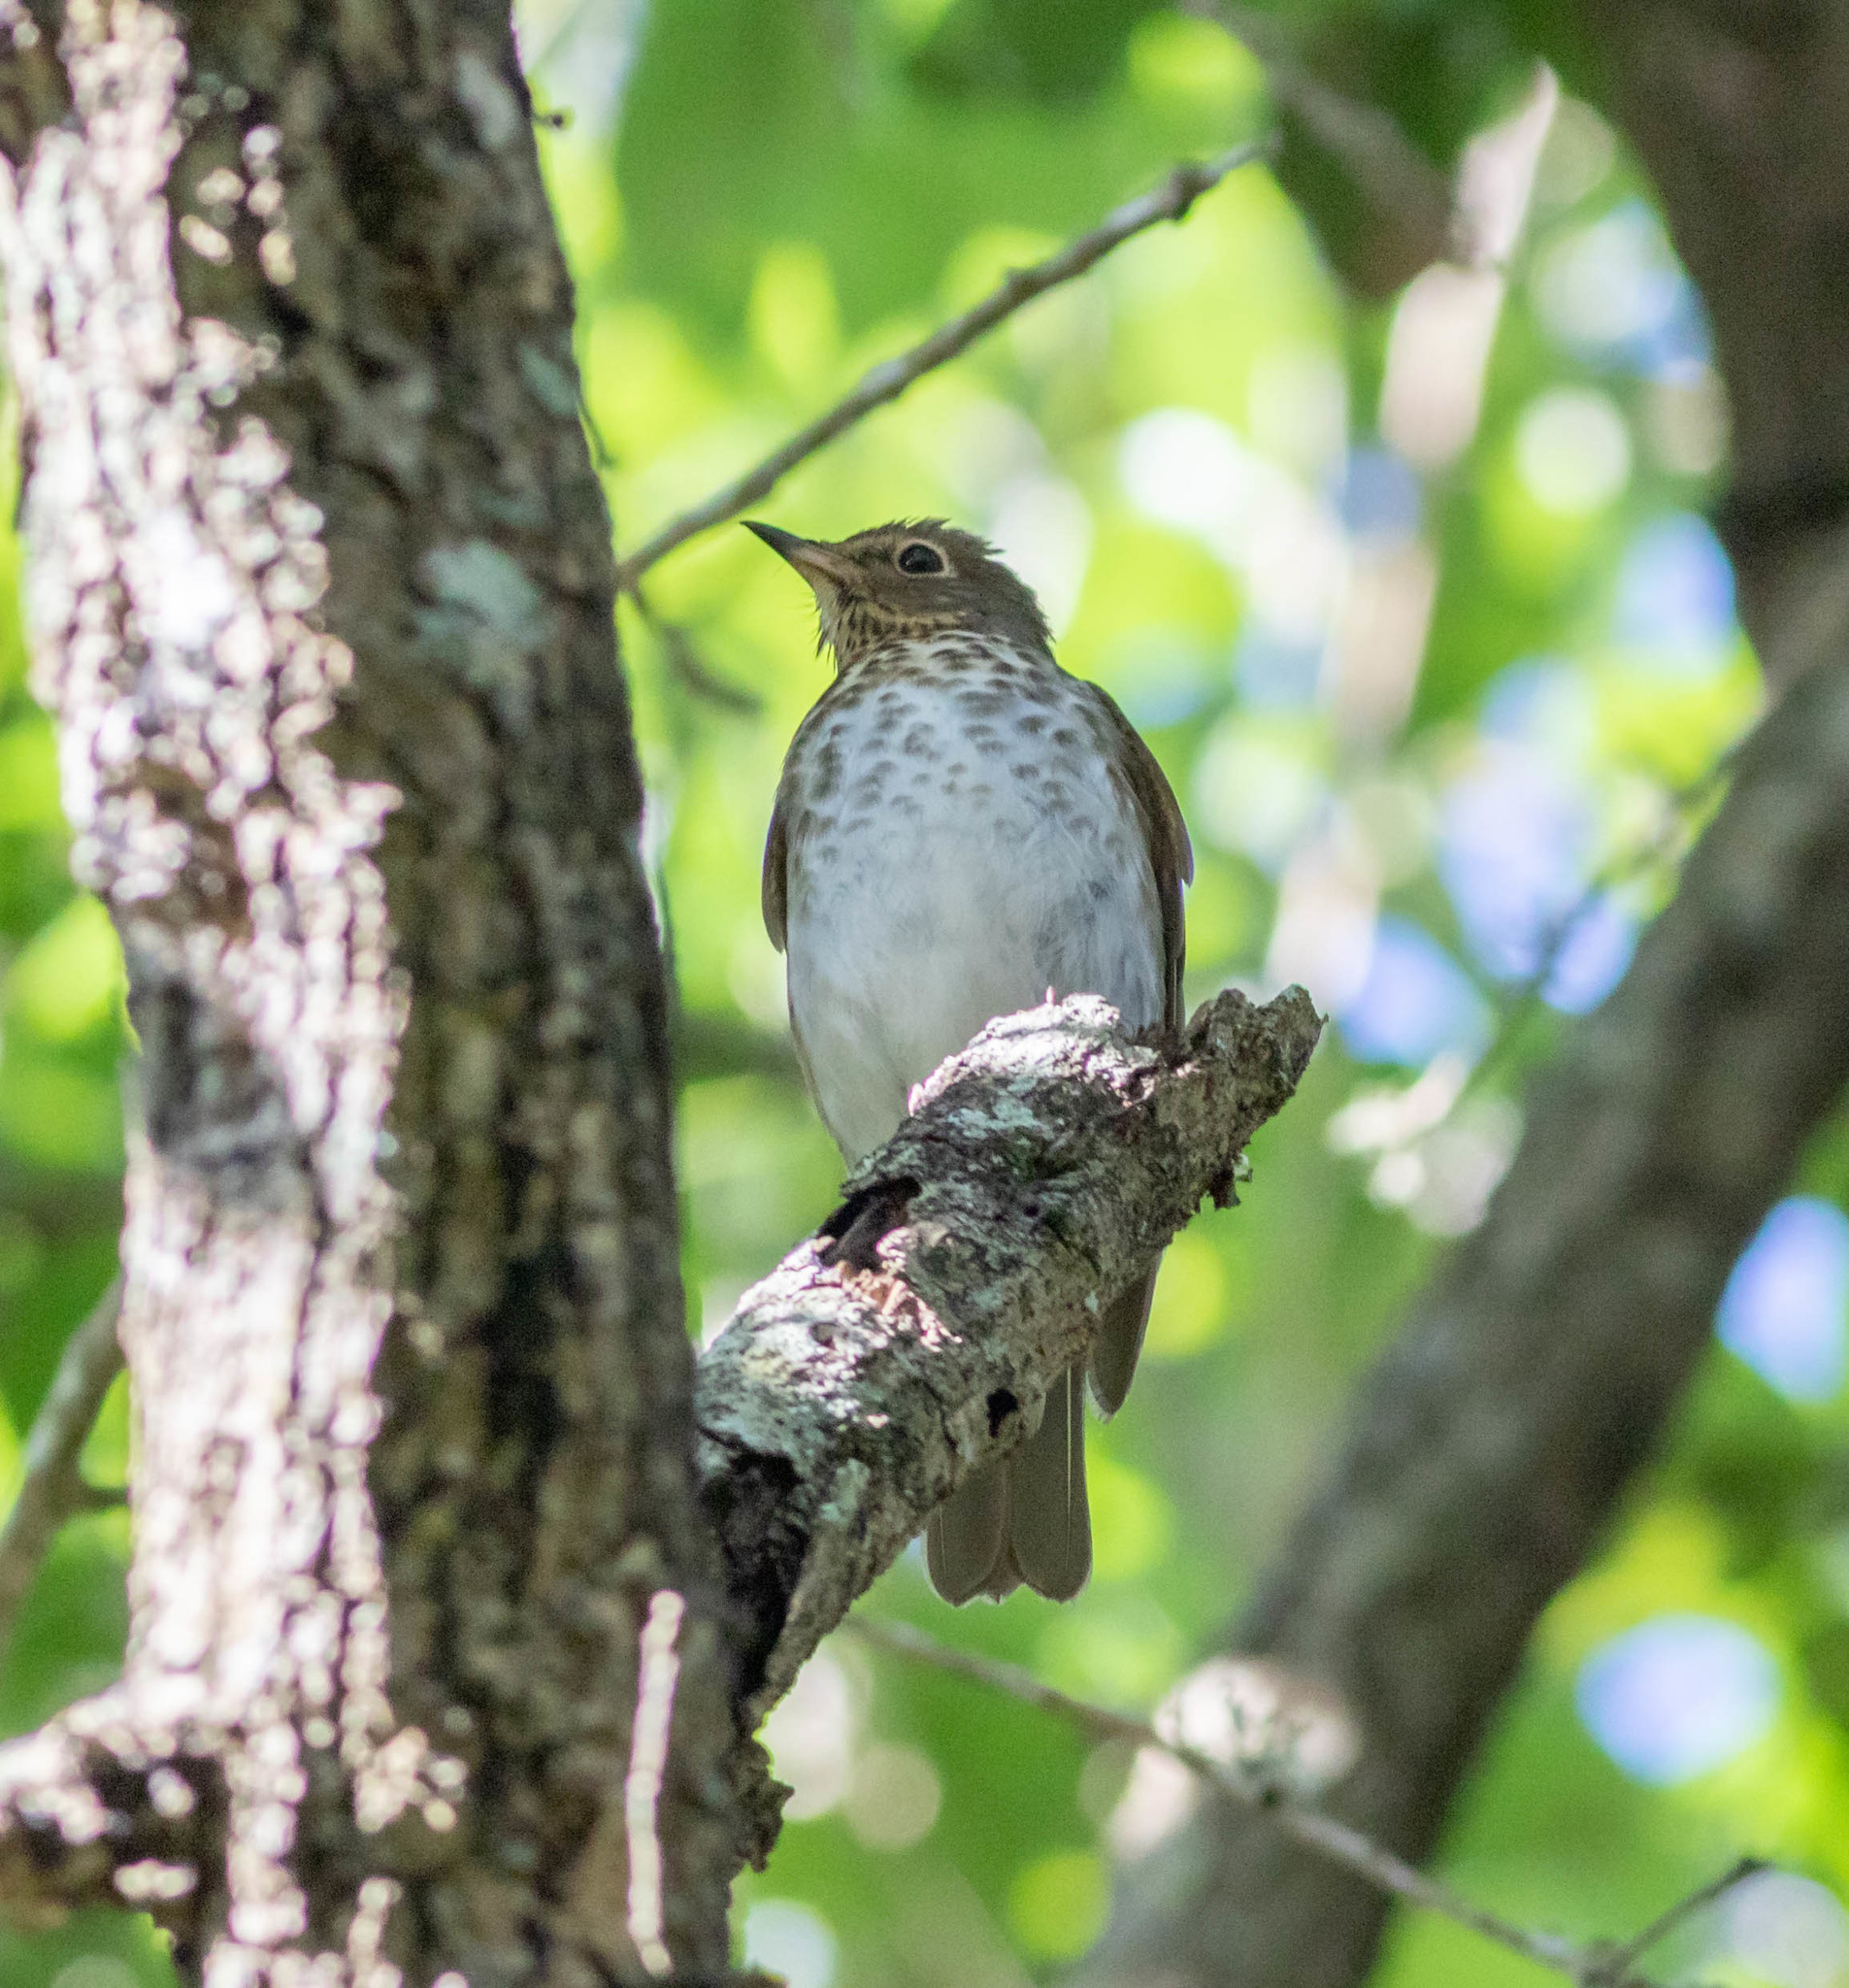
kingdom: Animalia
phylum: Chordata
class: Aves
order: Passeriformes
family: Turdidae
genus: Catharus
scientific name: Catharus ustulatus
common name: Swainson's thrush
